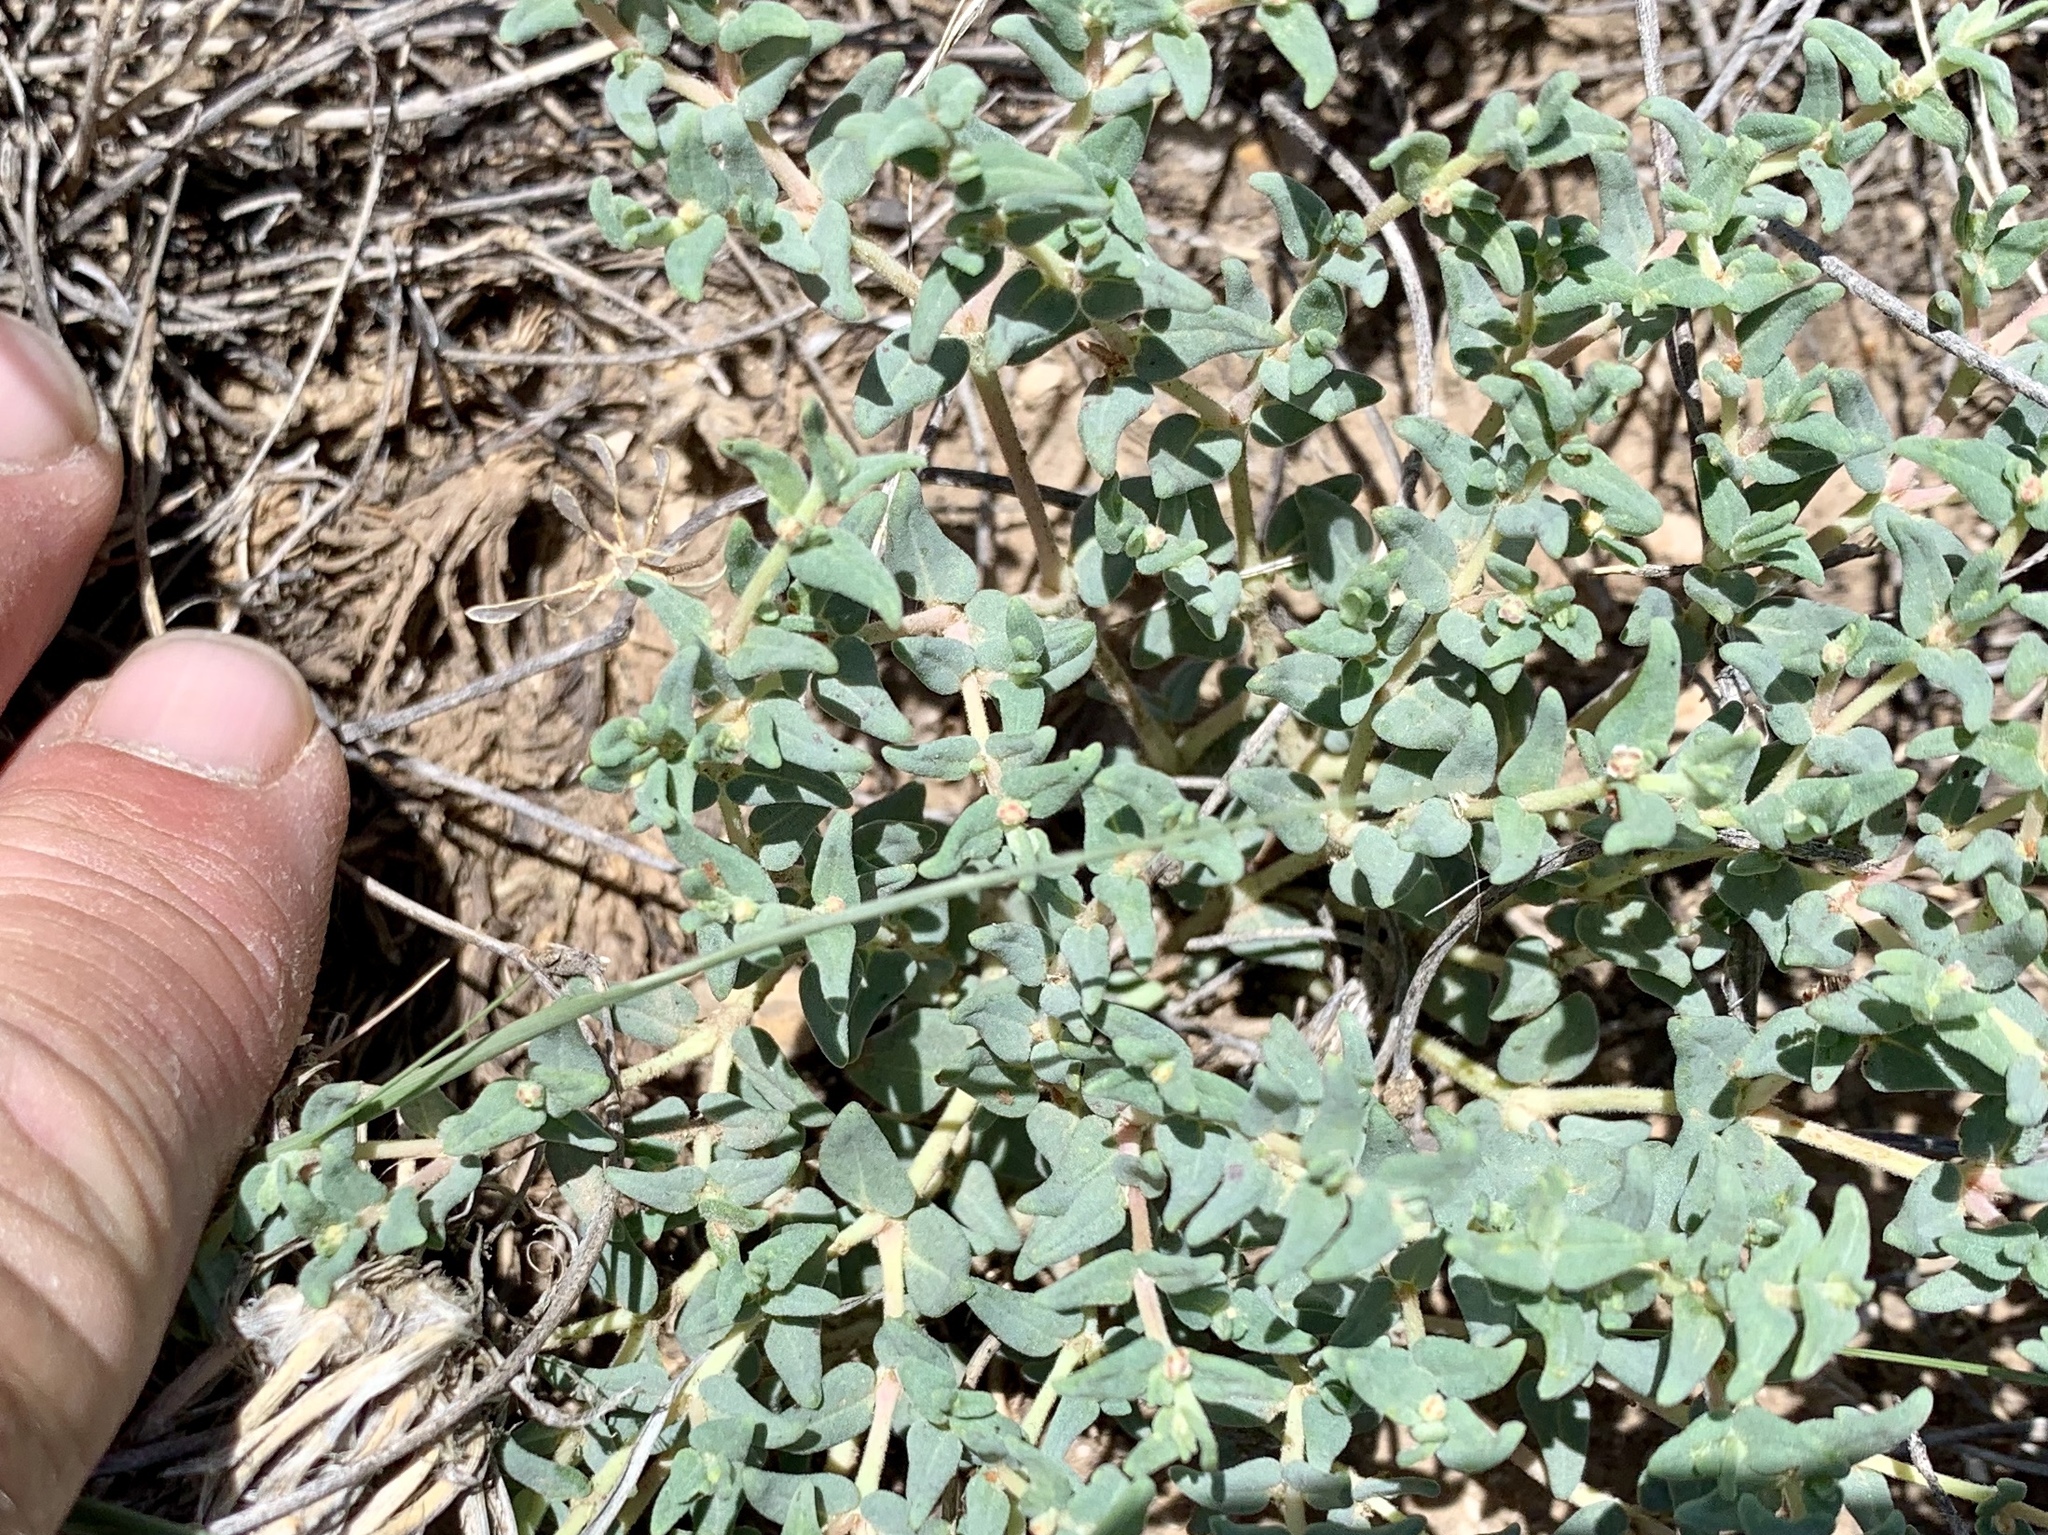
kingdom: Plantae
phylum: Tracheophyta
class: Magnoliopsida
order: Malpighiales
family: Euphorbiaceae
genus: Euphorbia
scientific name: Euphorbia lata
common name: Hoary euphorbia
